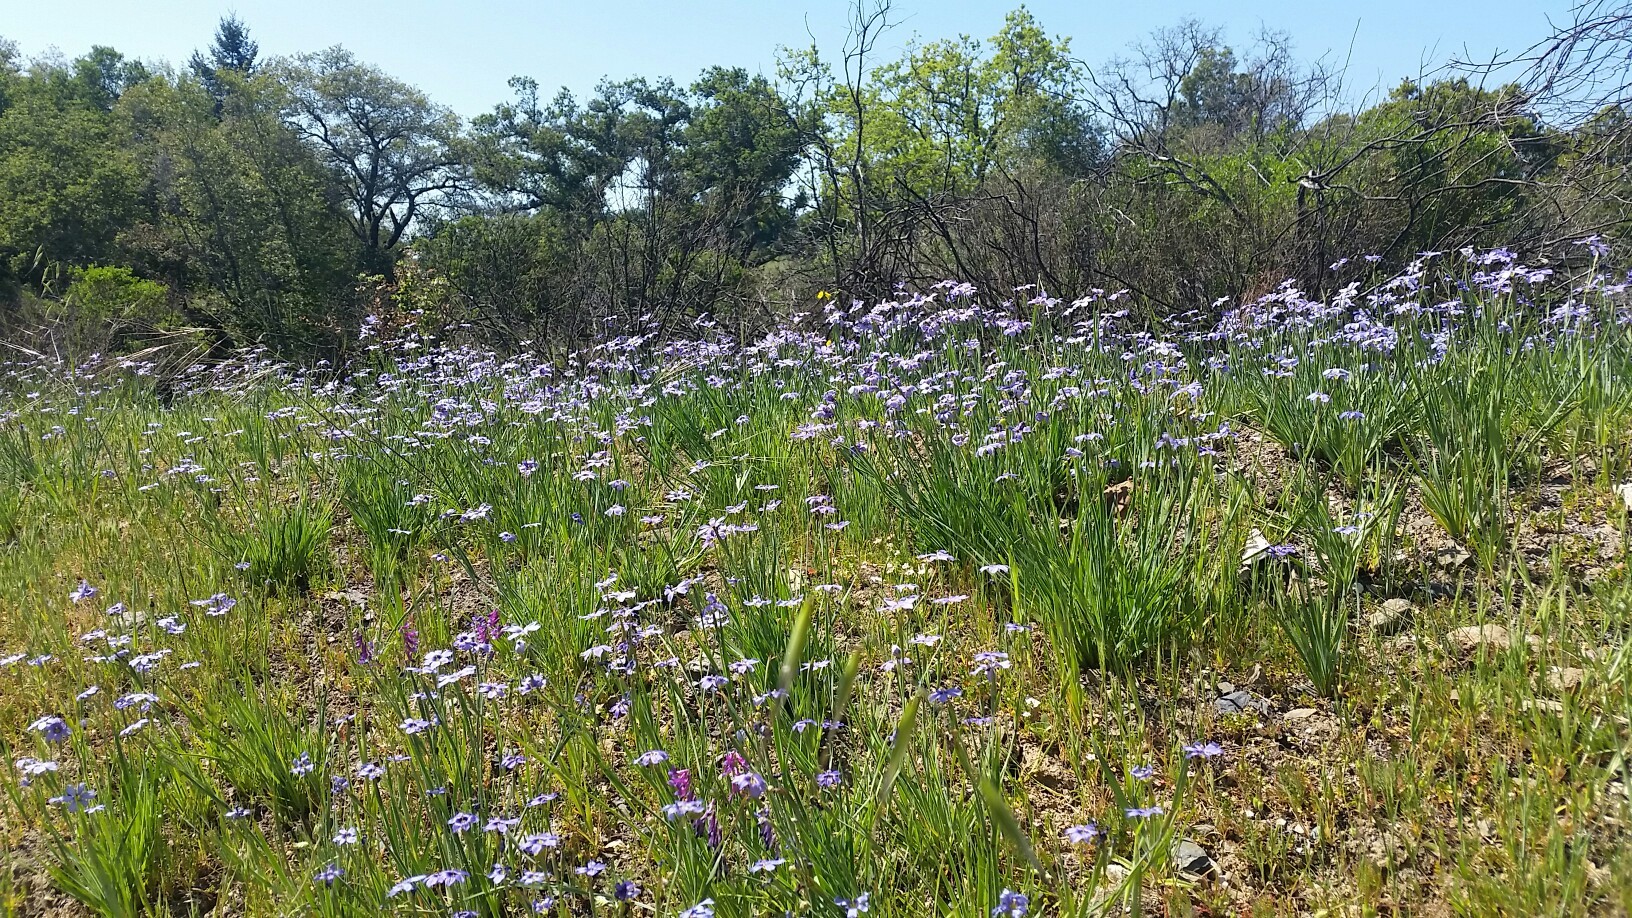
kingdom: Plantae
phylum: Tracheophyta
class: Liliopsida
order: Asparagales
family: Iridaceae
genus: Sisyrinchium
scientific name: Sisyrinchium bellum
